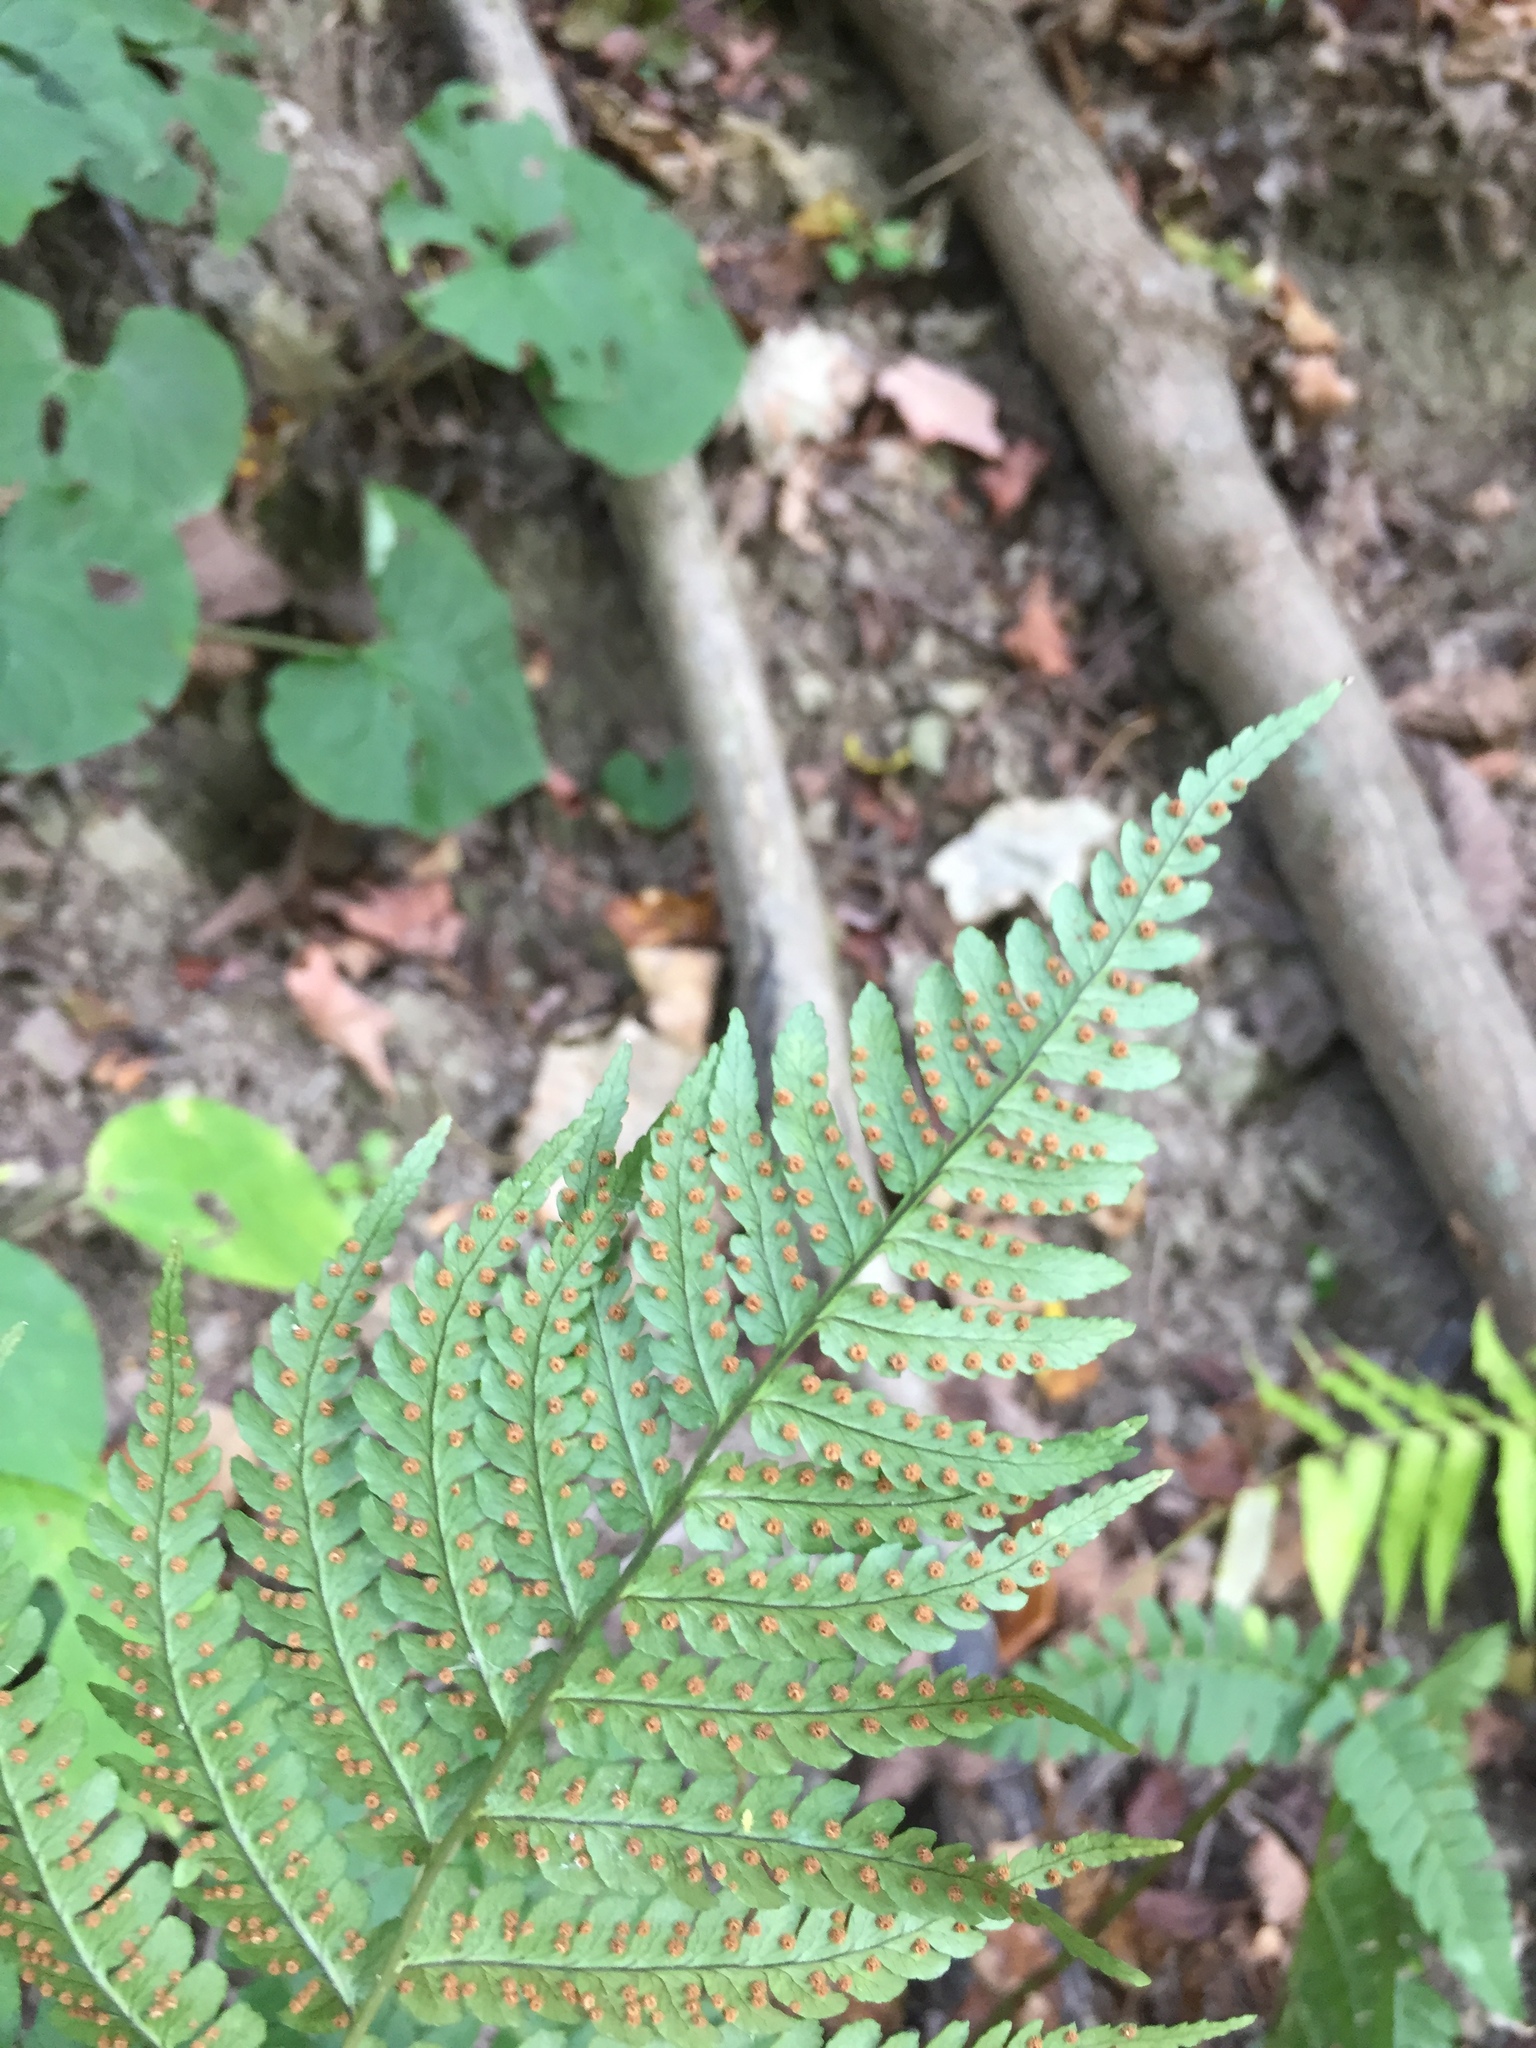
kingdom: Plantae
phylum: Tracheophyta
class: Polypodiopsida
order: Polypodiales
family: Dryopteridaceae
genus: Dryopteris
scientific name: Dryopteris marginalis
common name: Marginal wood fern
